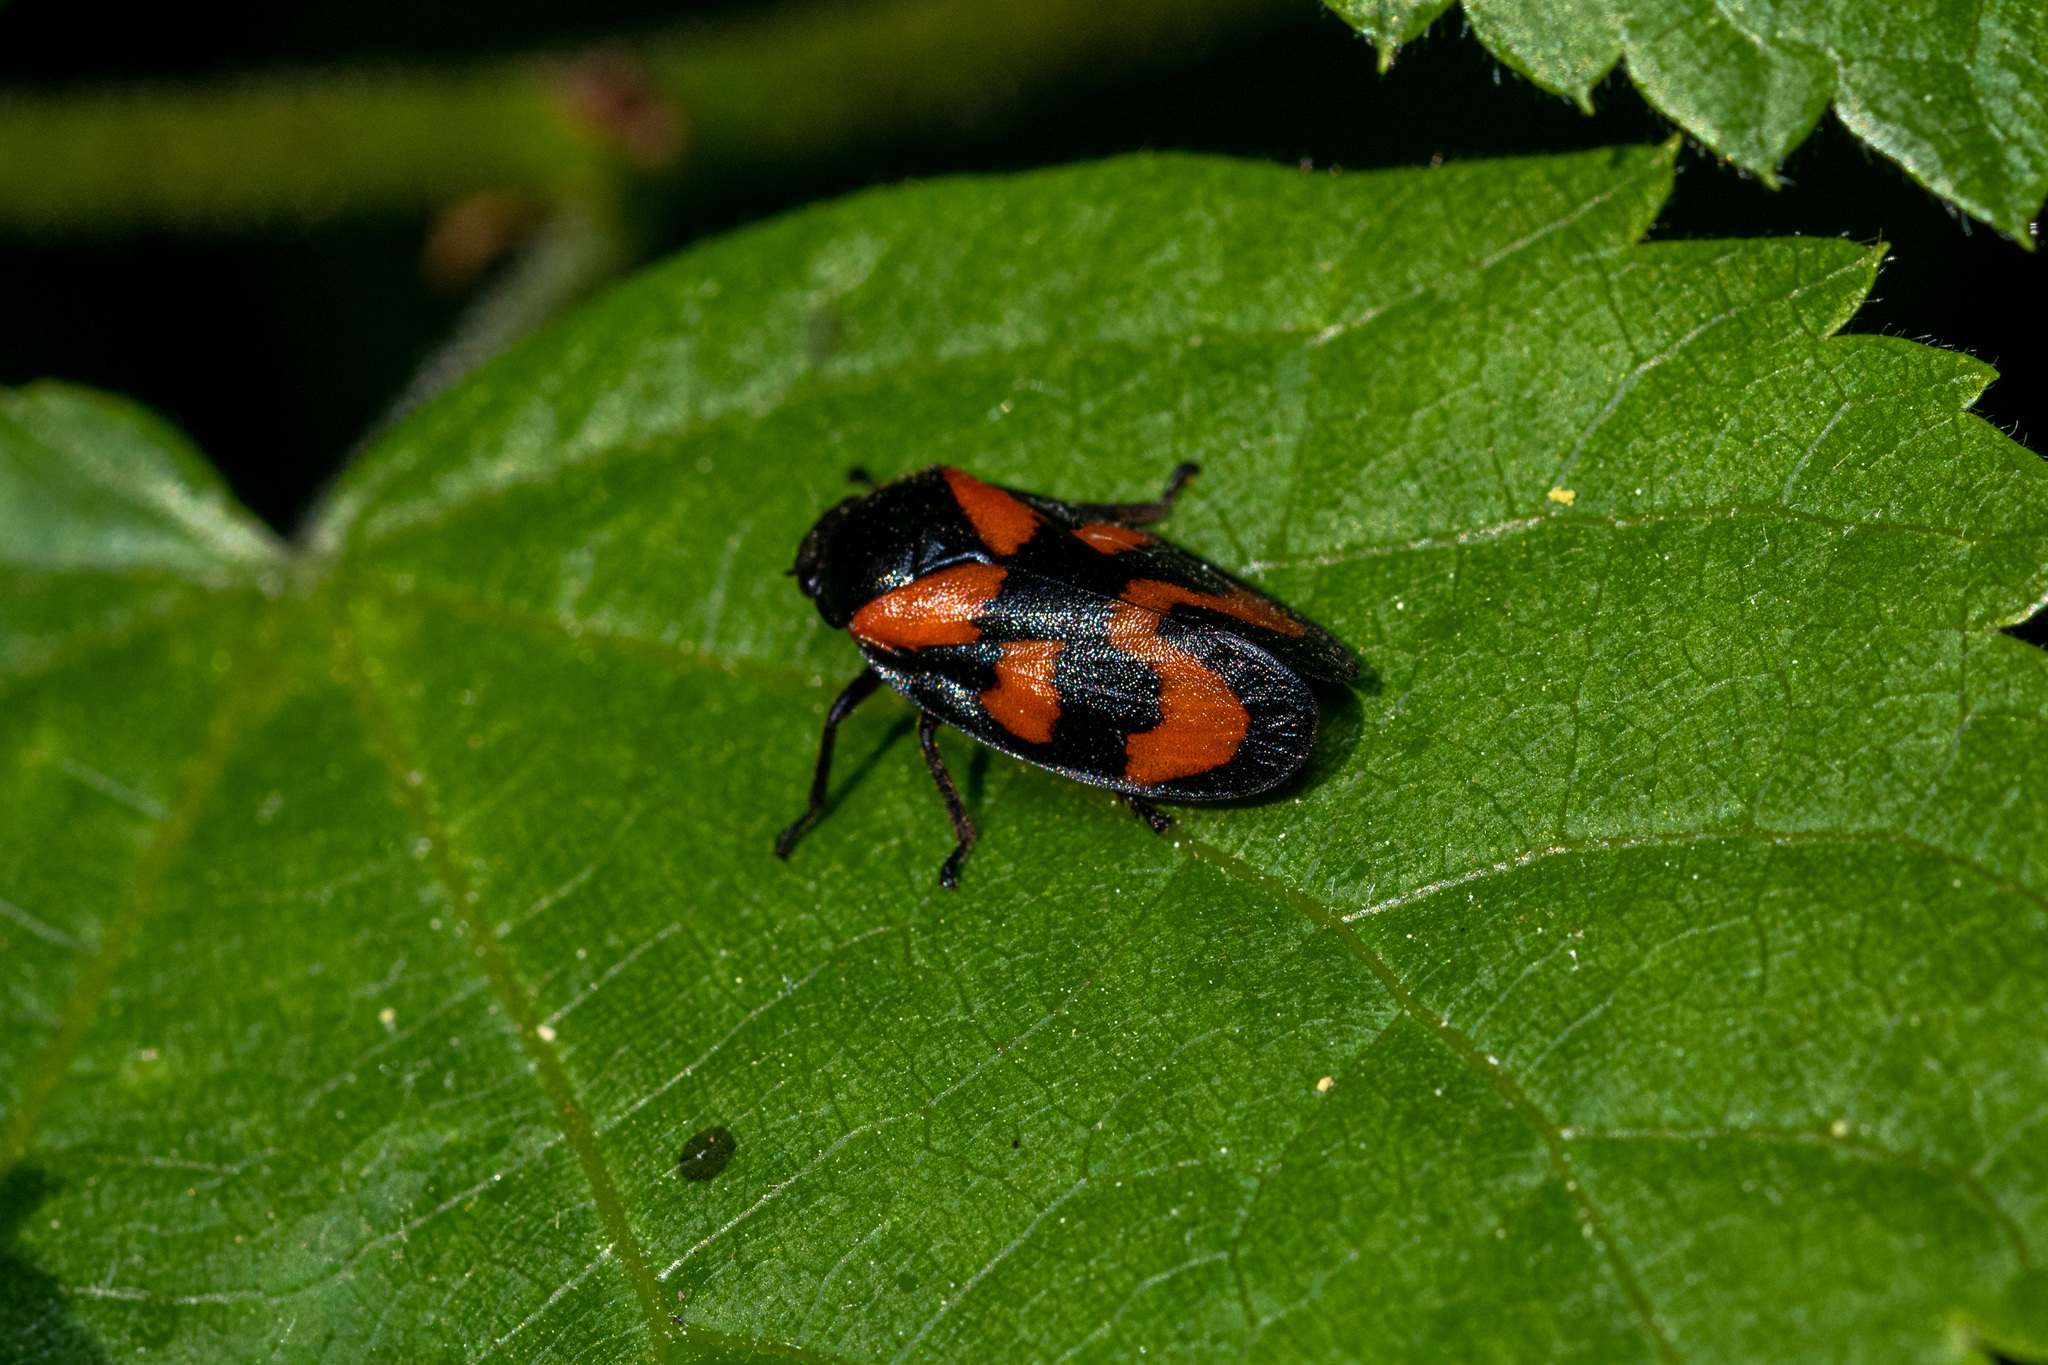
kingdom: Animalia
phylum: Arthropoda
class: Insecta
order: Hemiptera
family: Cercopidae
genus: Cercopis
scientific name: Cercopis vulnerata
